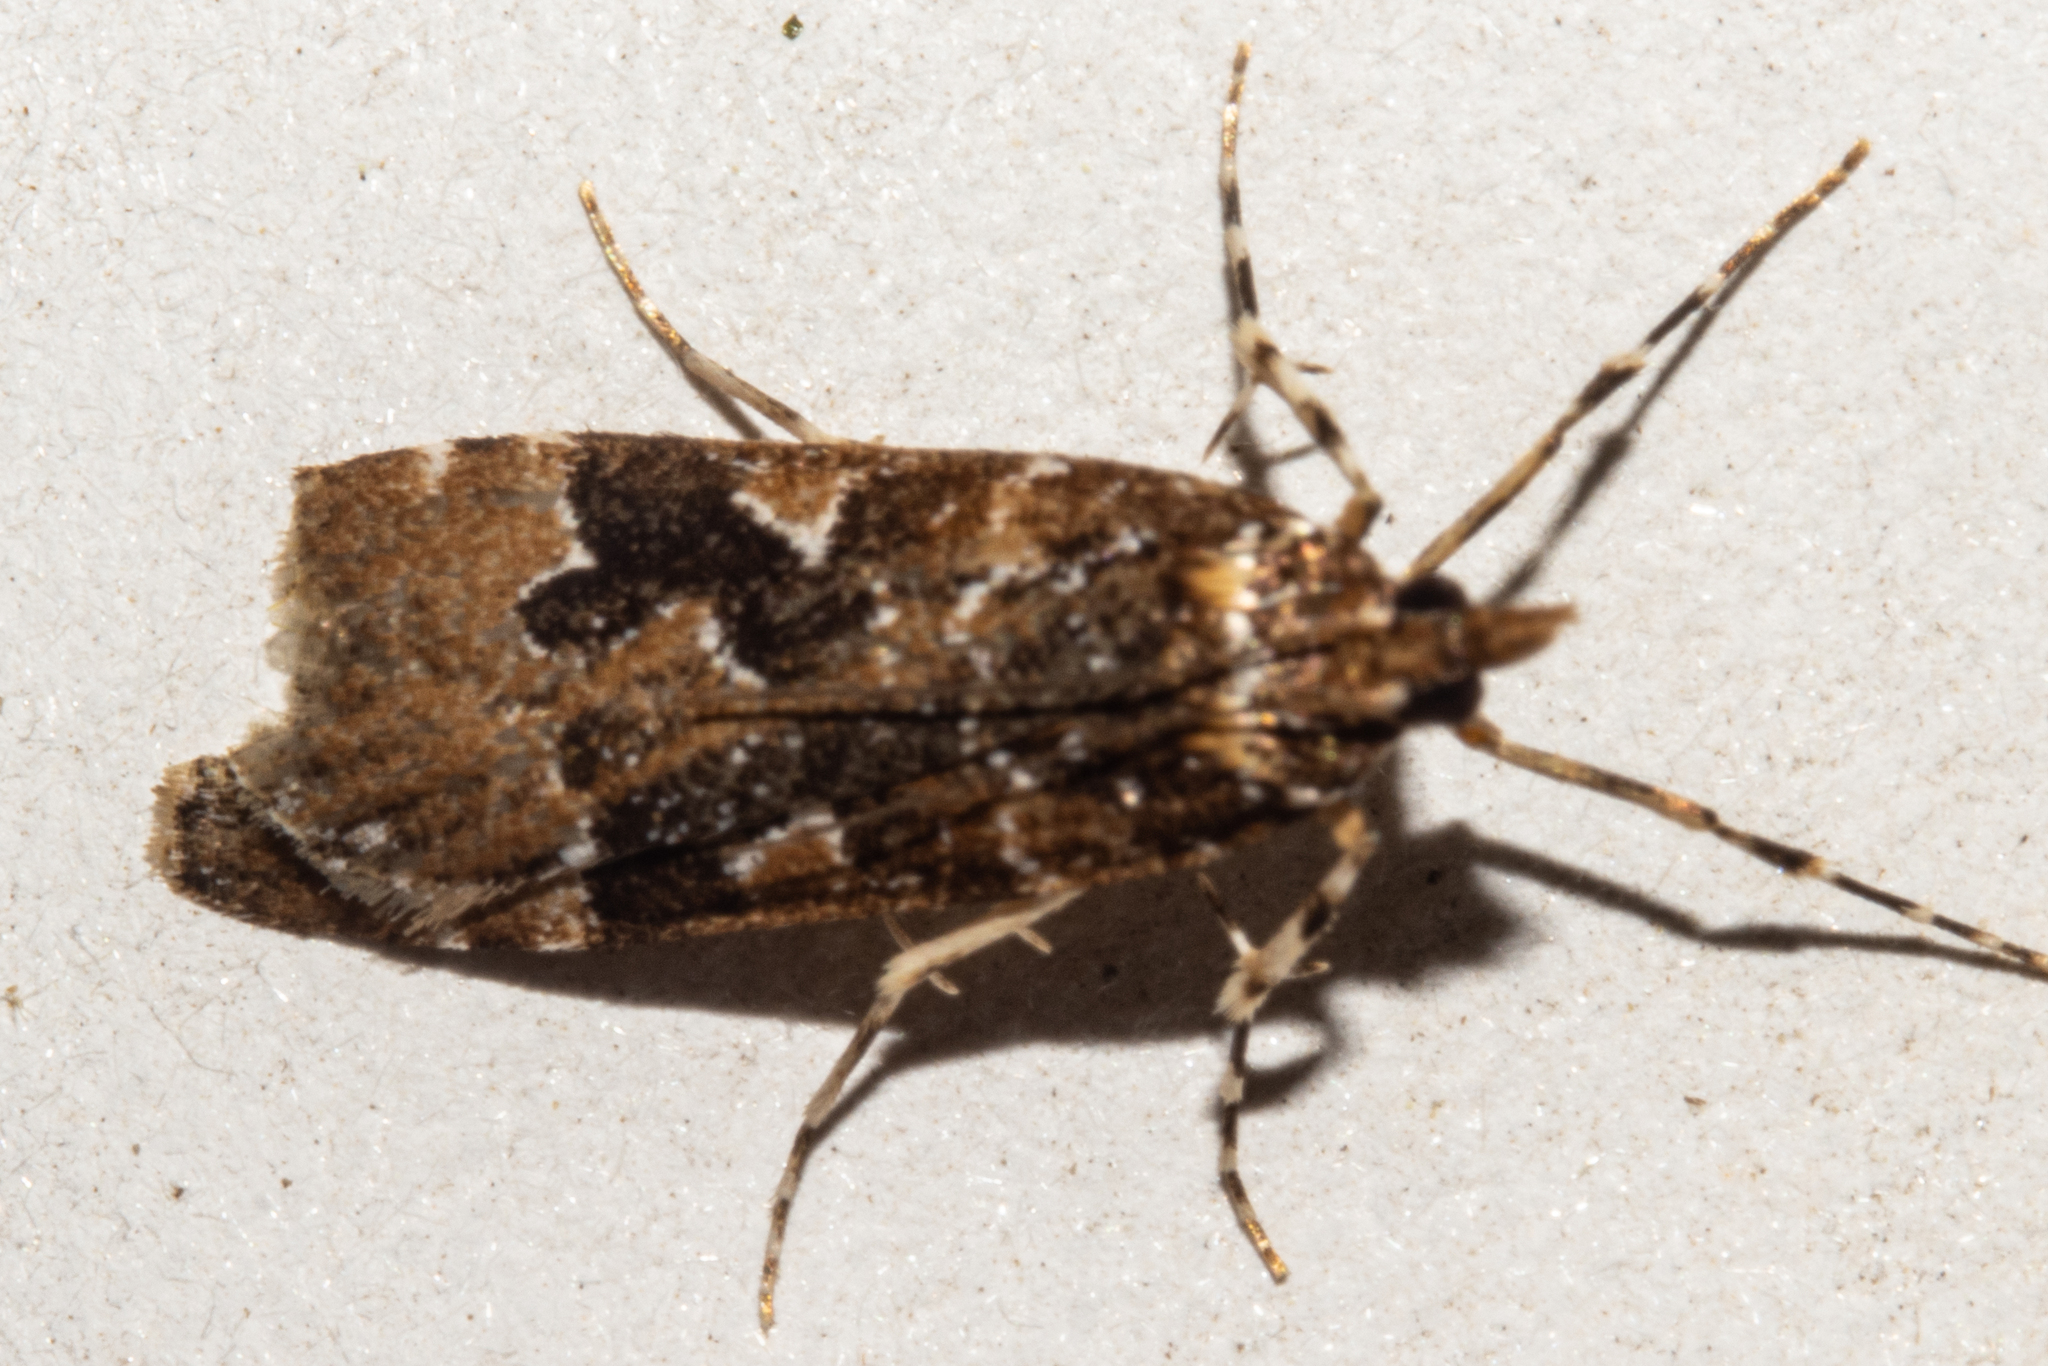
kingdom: Animalia
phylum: Arthropoda
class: Insecta
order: Lepidoptera
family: Crambidae
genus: Scoparia
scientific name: Scoparia ustimacula
